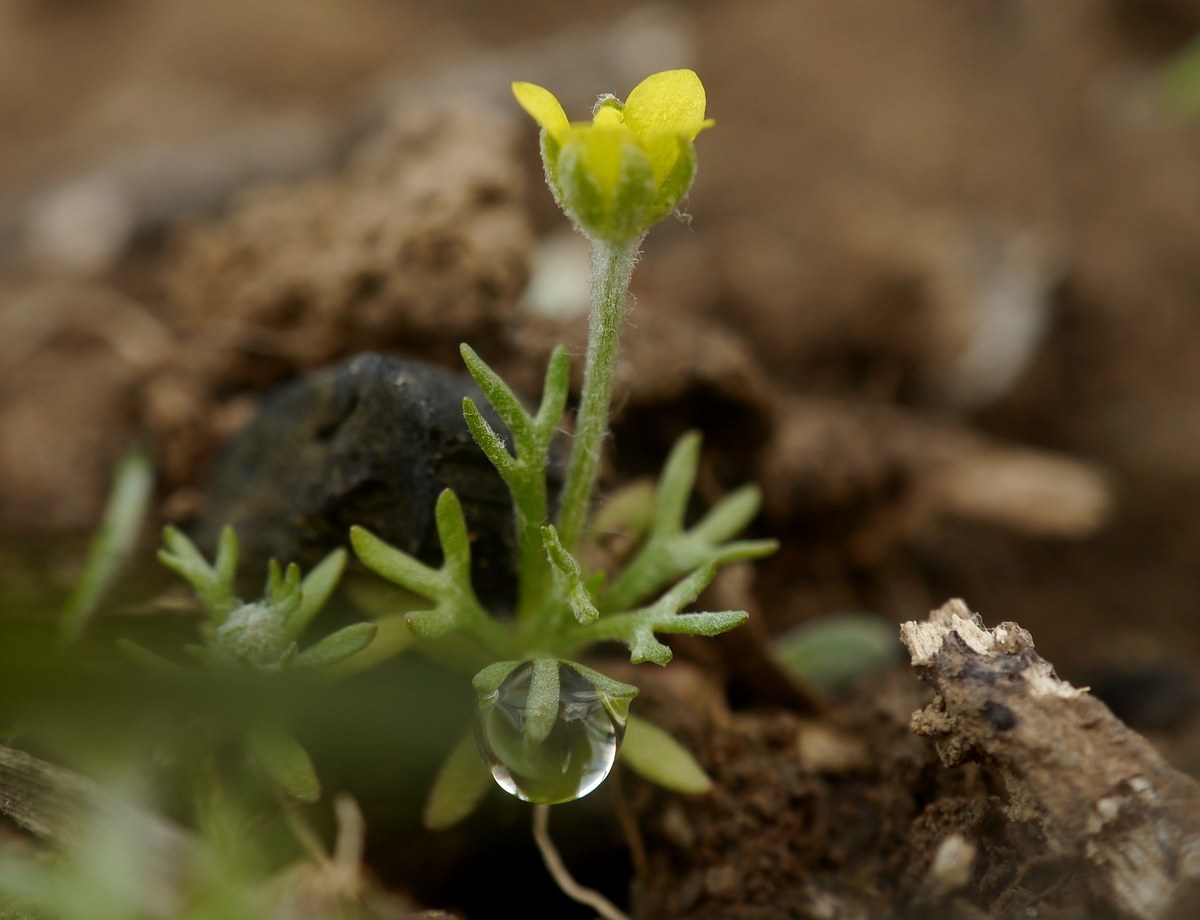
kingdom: Plantae
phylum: Tracheophyta
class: Magnoliopsida
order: Ranunculales
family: Ranunculaceae
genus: Ceratocephala
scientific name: Ceratocephala orthoceras
